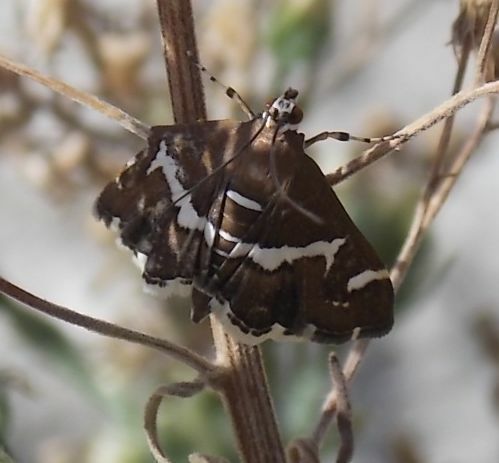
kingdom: Animalia
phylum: Arthropoda
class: Insecta
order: Lepidoptera
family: Crambidae
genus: Spoladea
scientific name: Spoladea recurvalis
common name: Beet webworm moth
